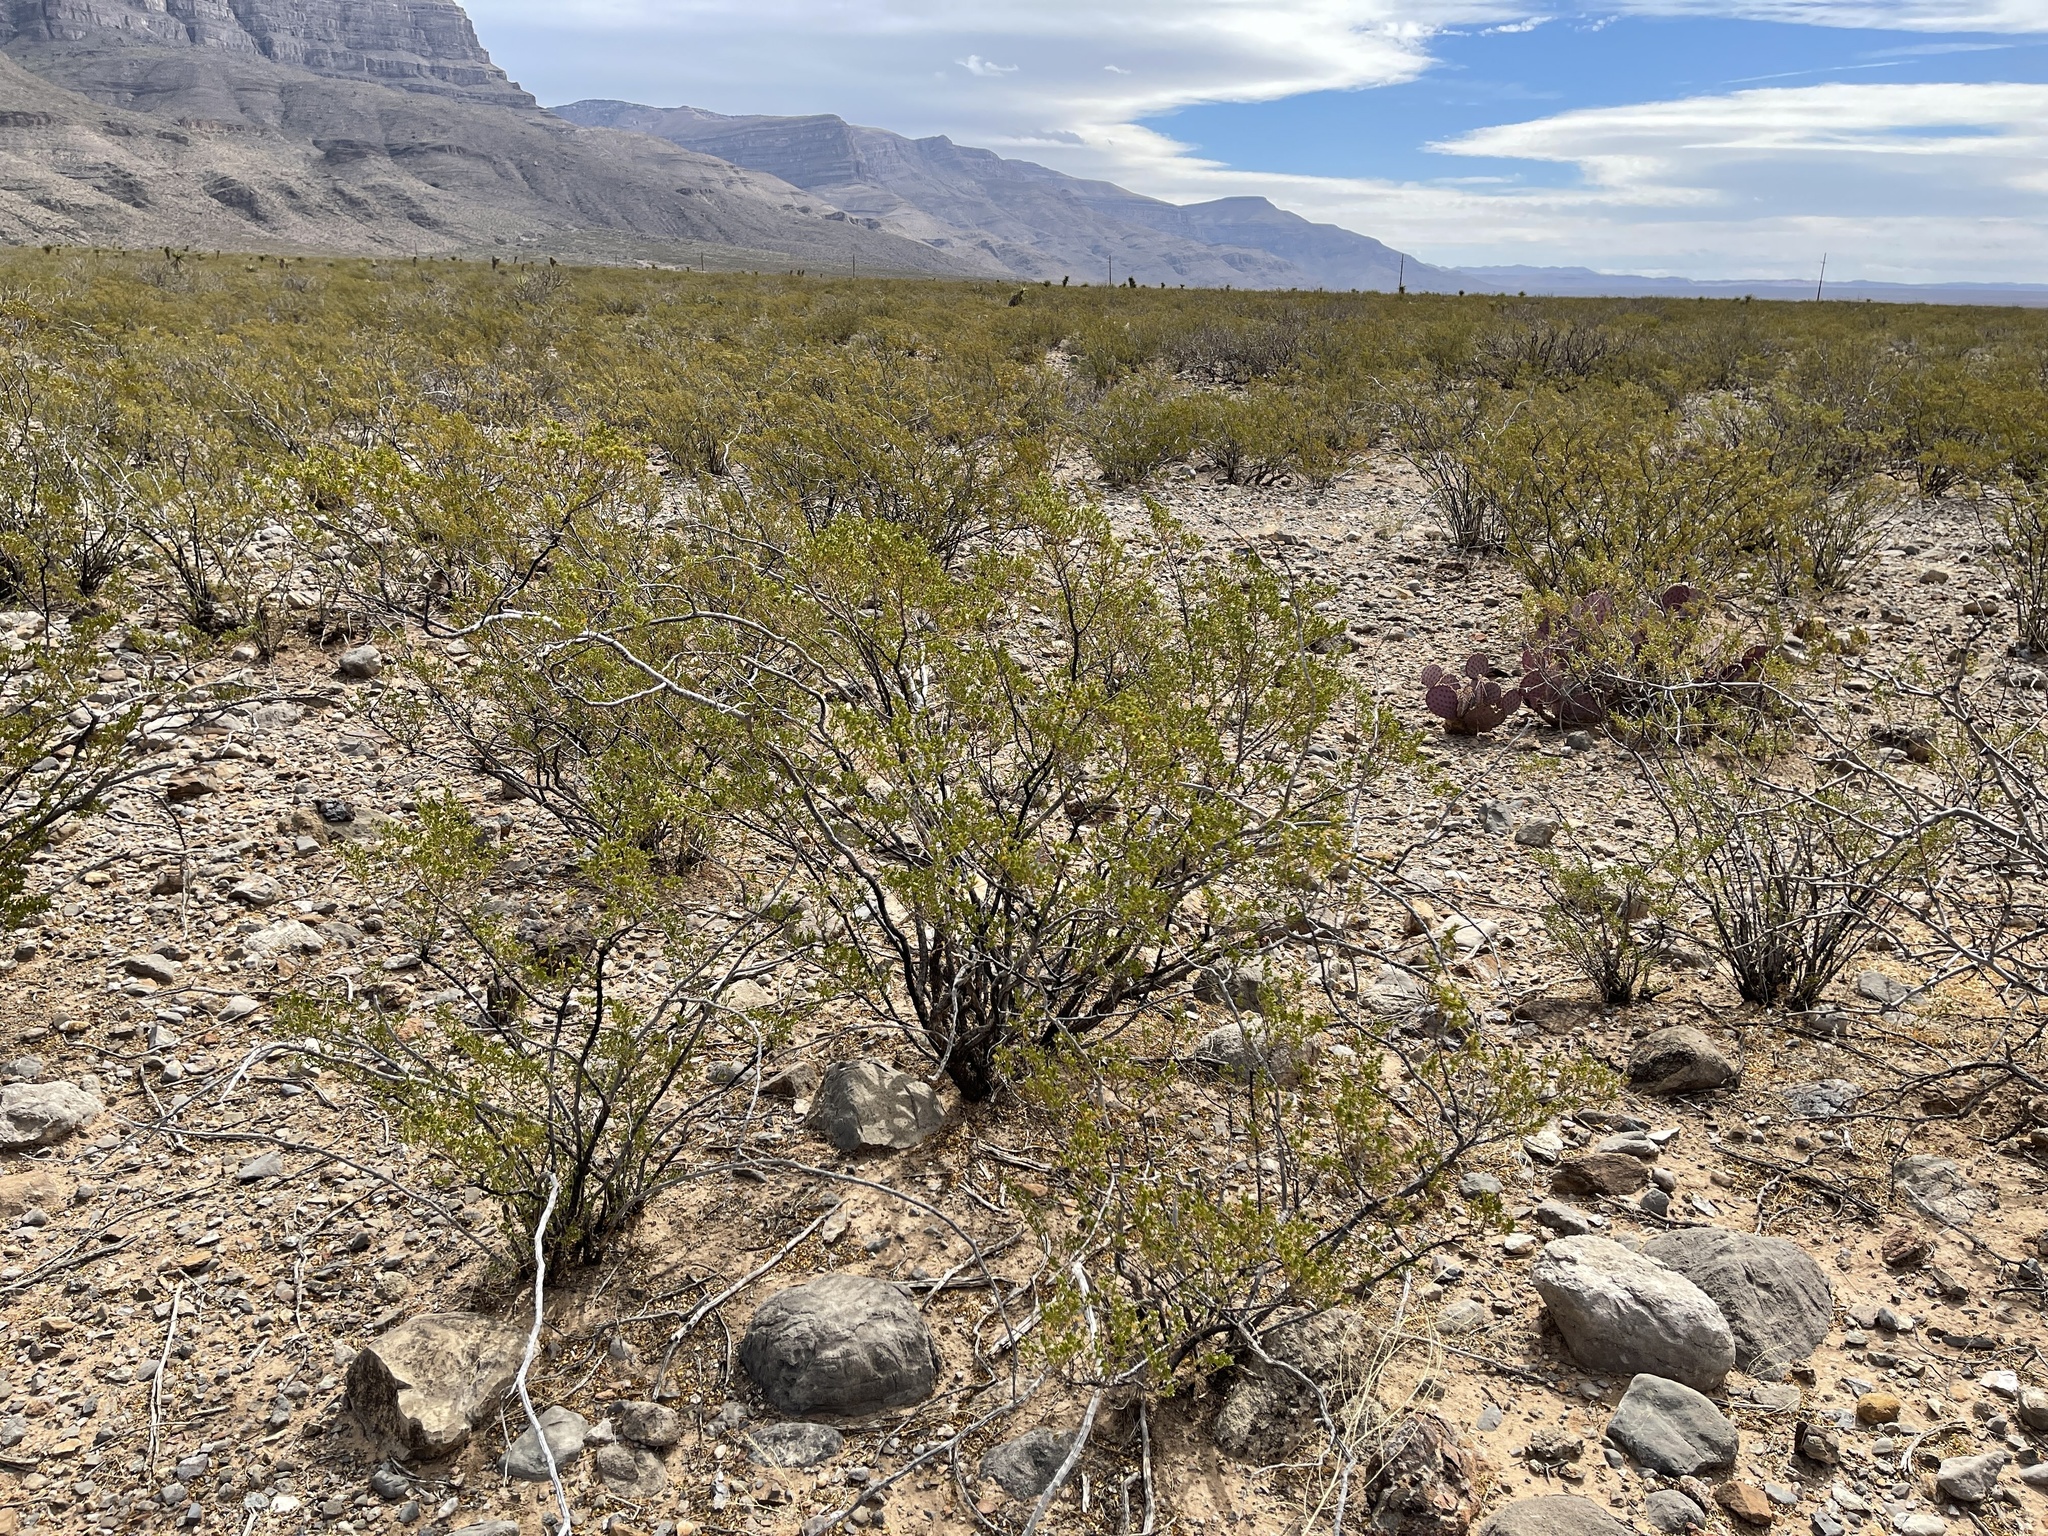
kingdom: Plantae
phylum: Tracheophyta
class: Magnoliopsida
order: Zygophyllales
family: Zygophyllaceae
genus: Larrea
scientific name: Larrea tridentata
